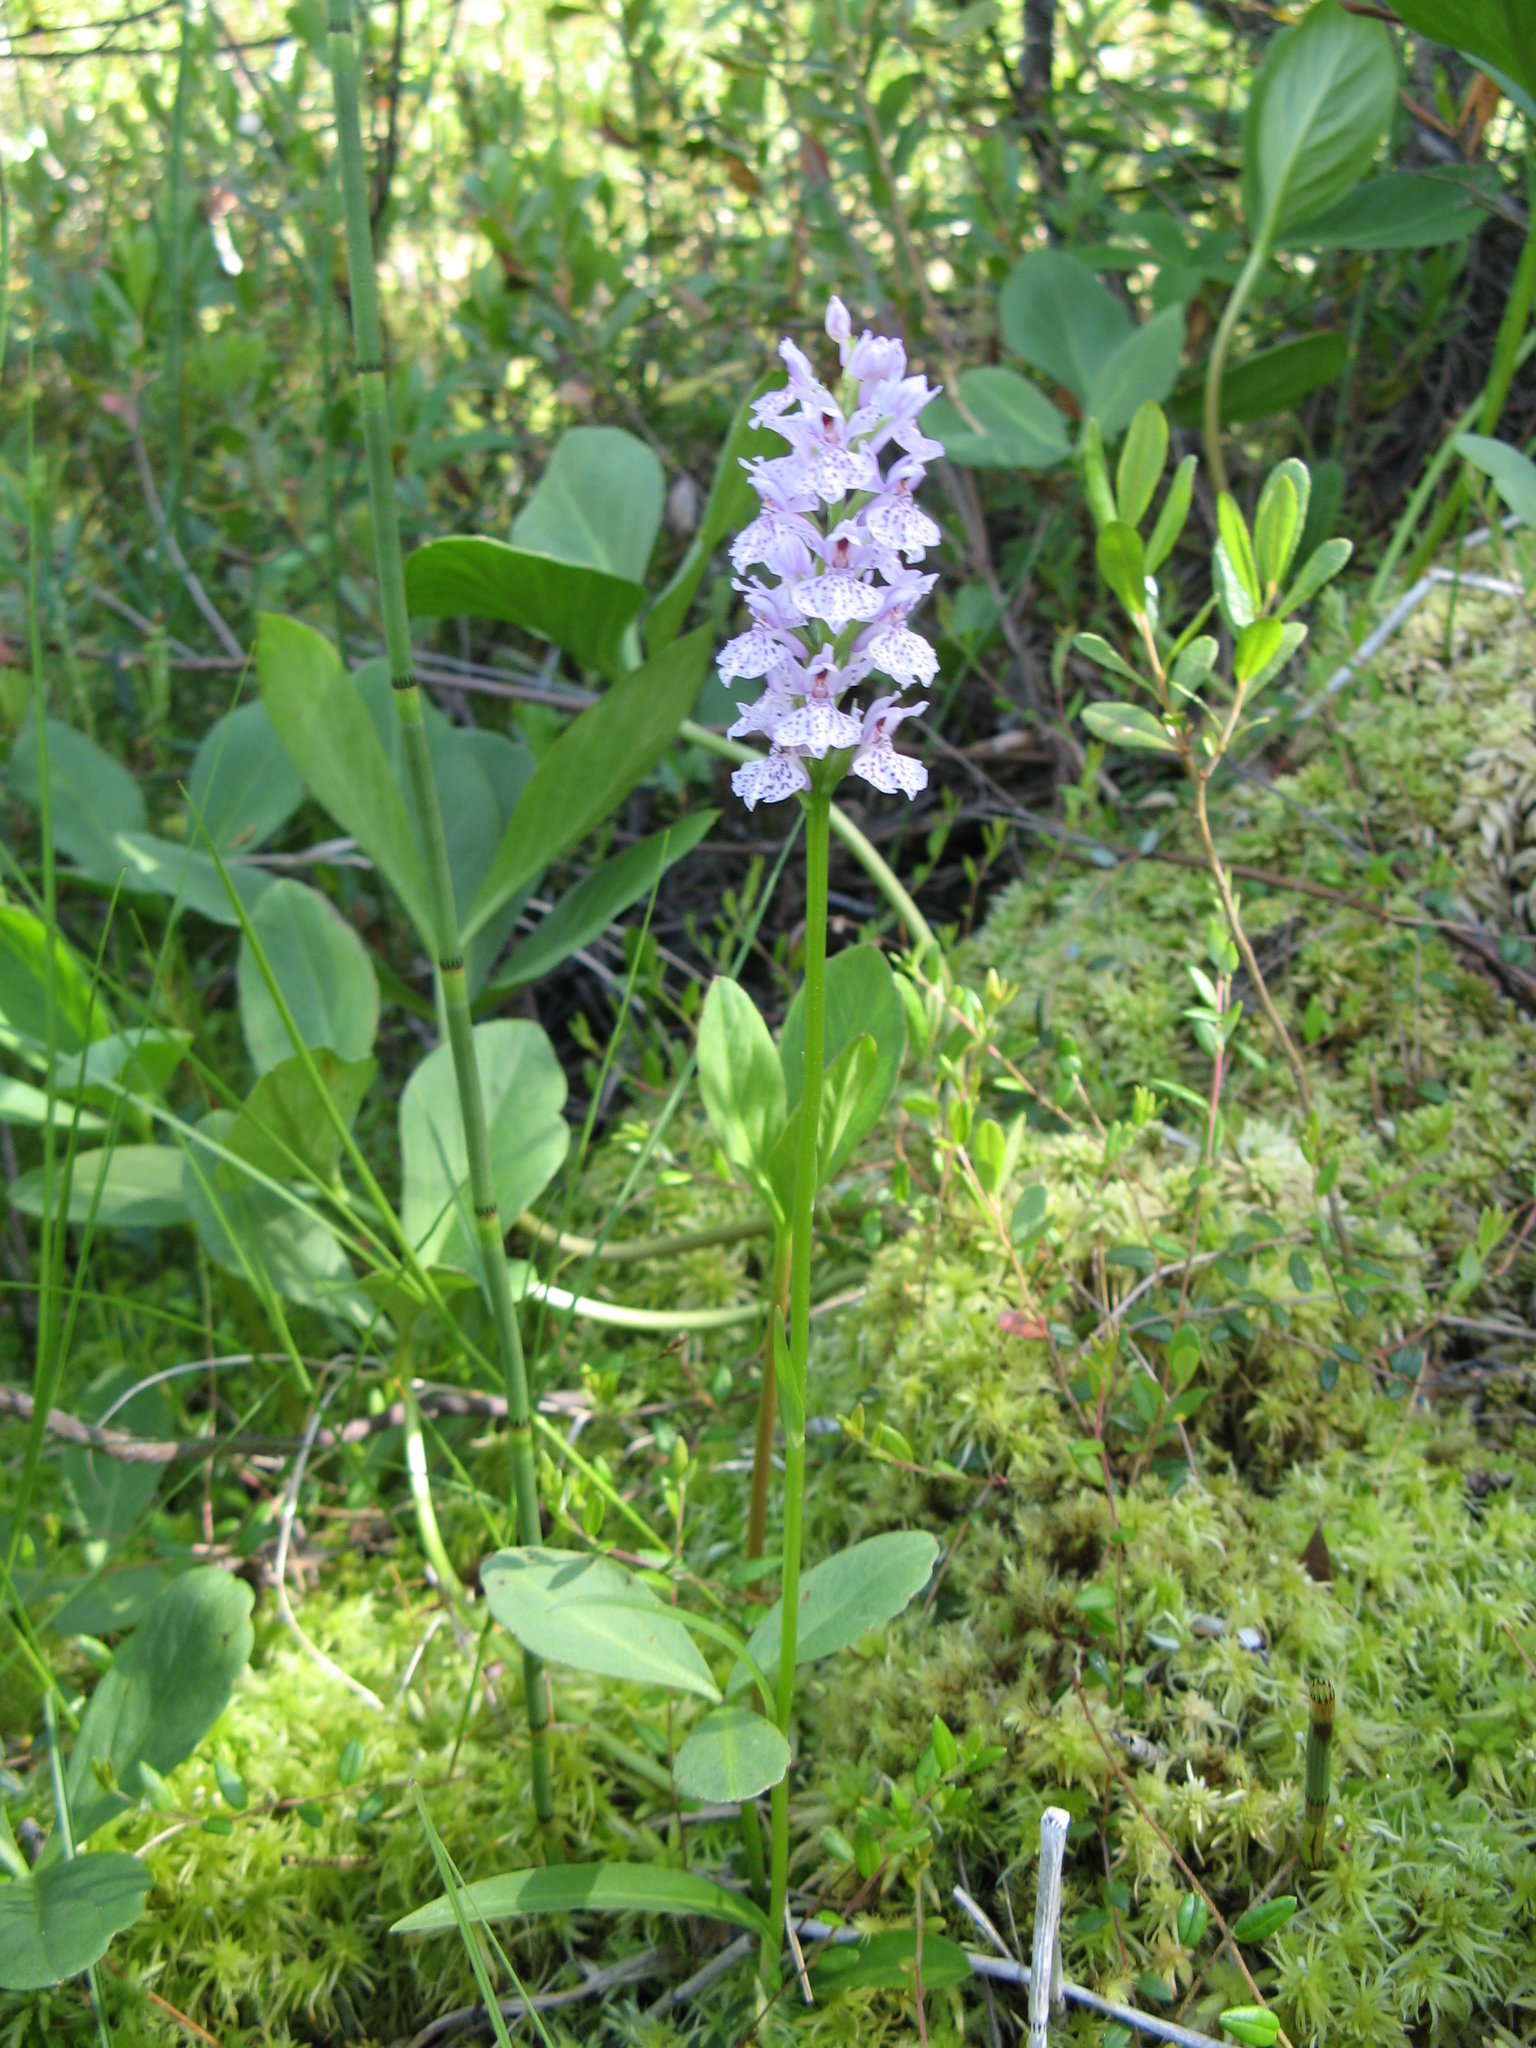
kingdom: Plantae
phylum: Tracheophyta
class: Liliopsida
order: Asparagales
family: Orchidaceae
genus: Dactylorhiza
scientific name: Dactylorhiza maculata
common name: Heath spotted-orchid
